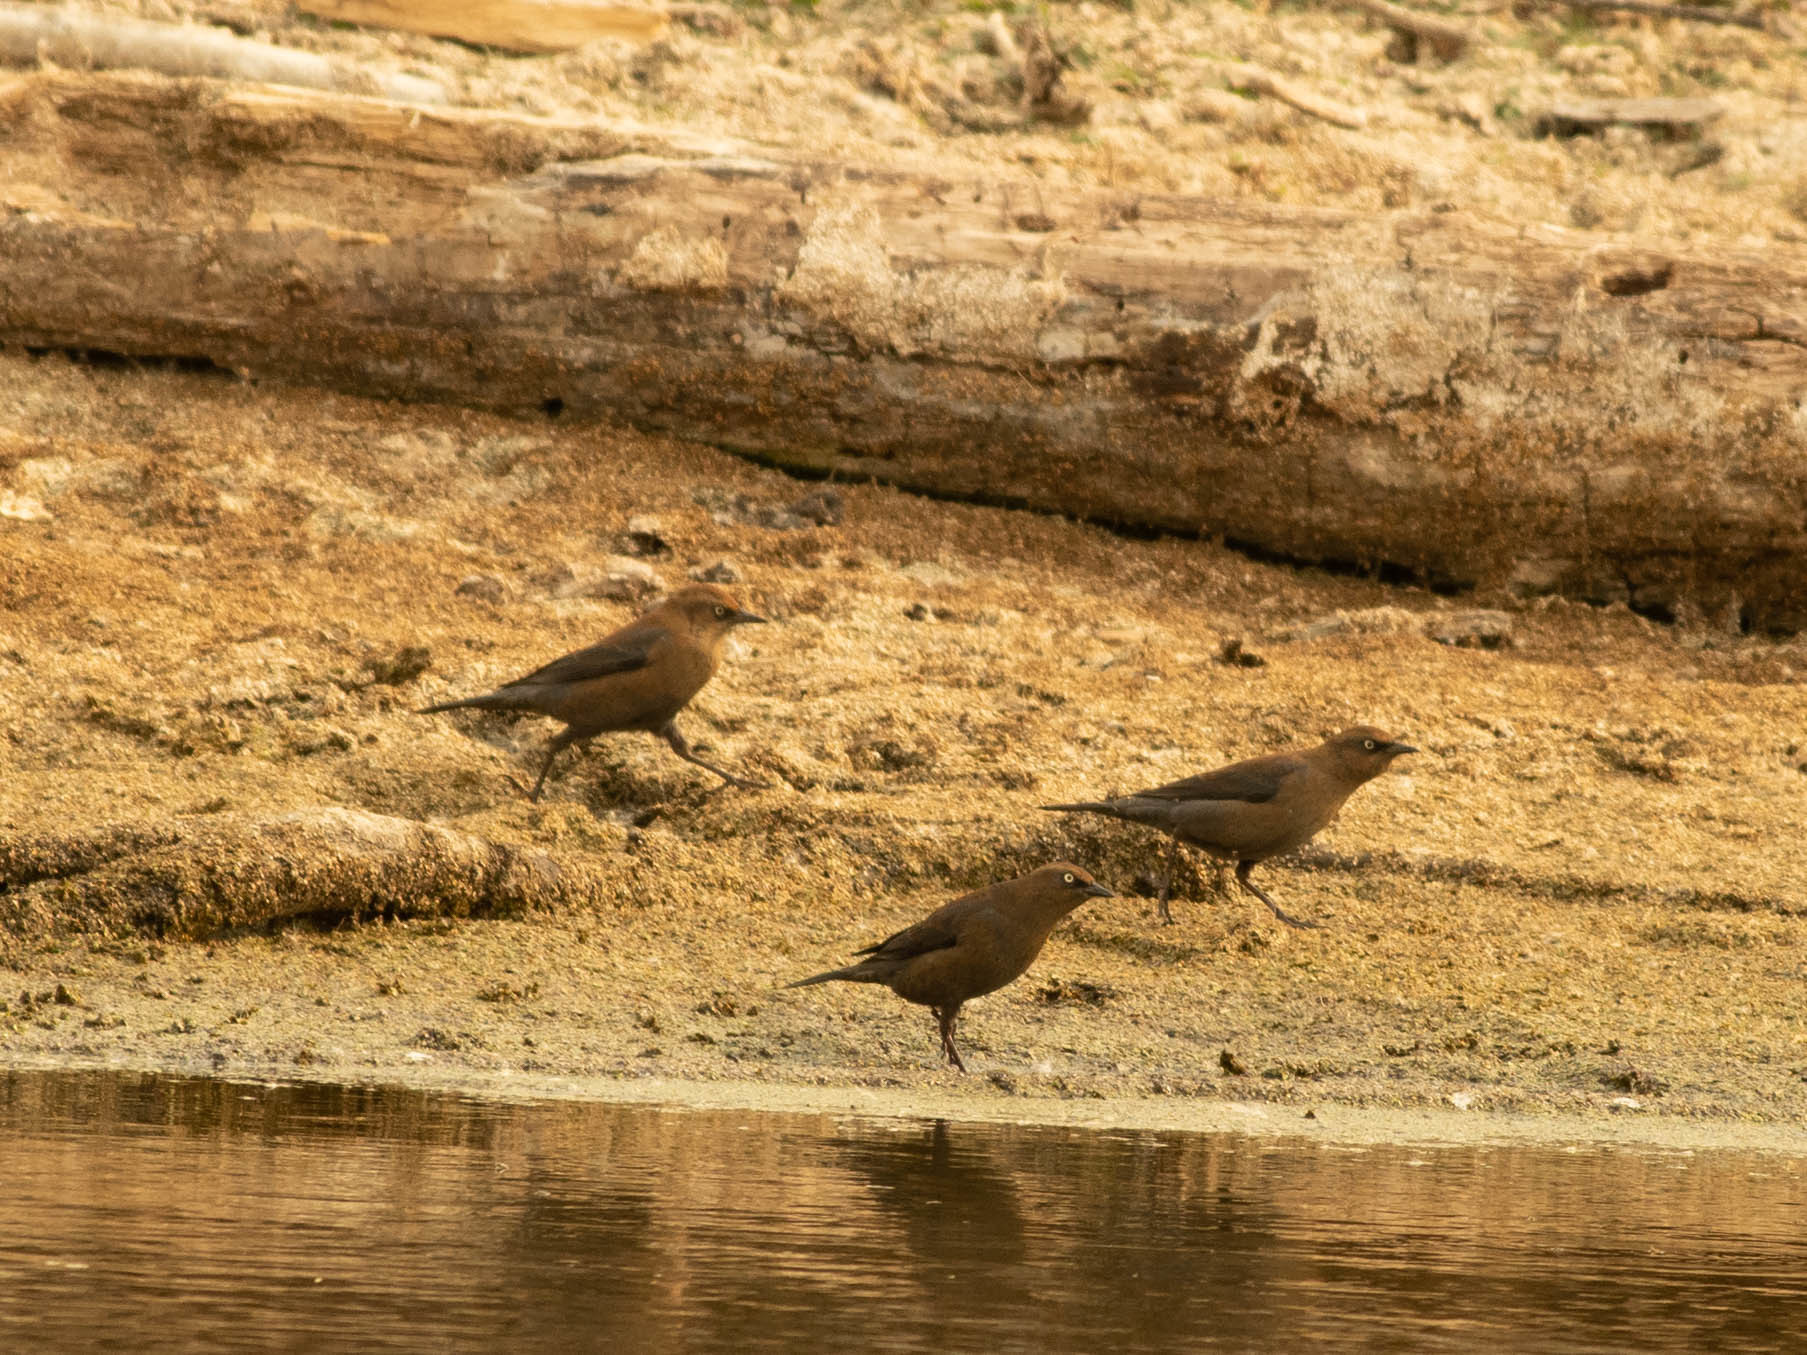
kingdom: Animalia
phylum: Chordata
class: Aves
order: Passeriformes
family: Icteridae
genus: Euphagus
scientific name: Euphagus carolinus
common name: Rusty blackbird
